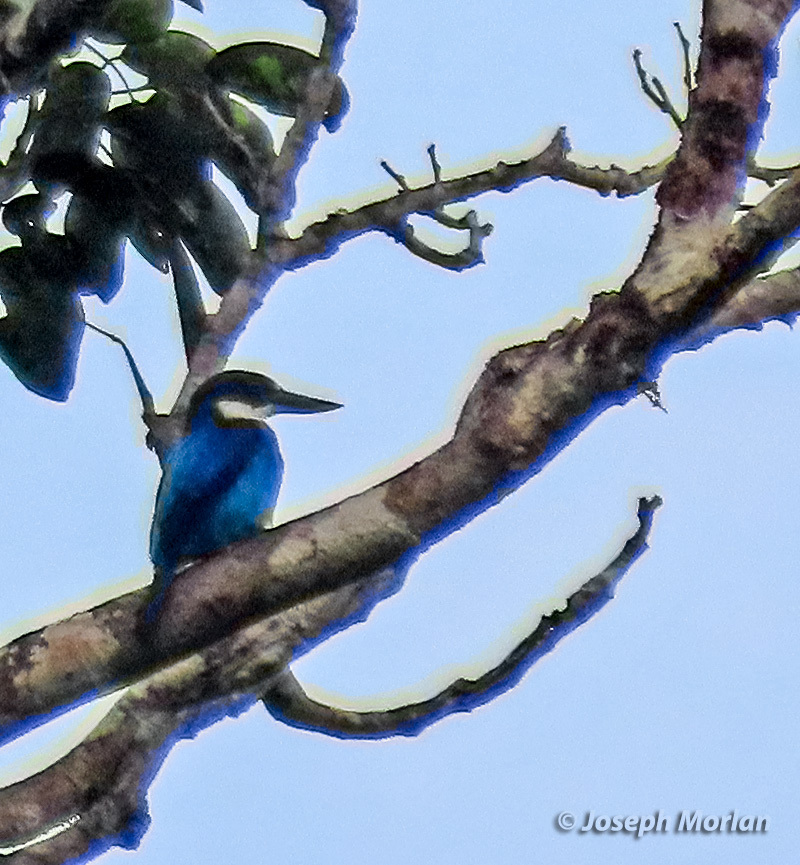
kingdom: Animalia
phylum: Chordata
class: Aves
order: Coraciiformes
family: Alcedinidae
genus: Todiramphus
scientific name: Todiramphus lazuli
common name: Lazuli kingfisher
